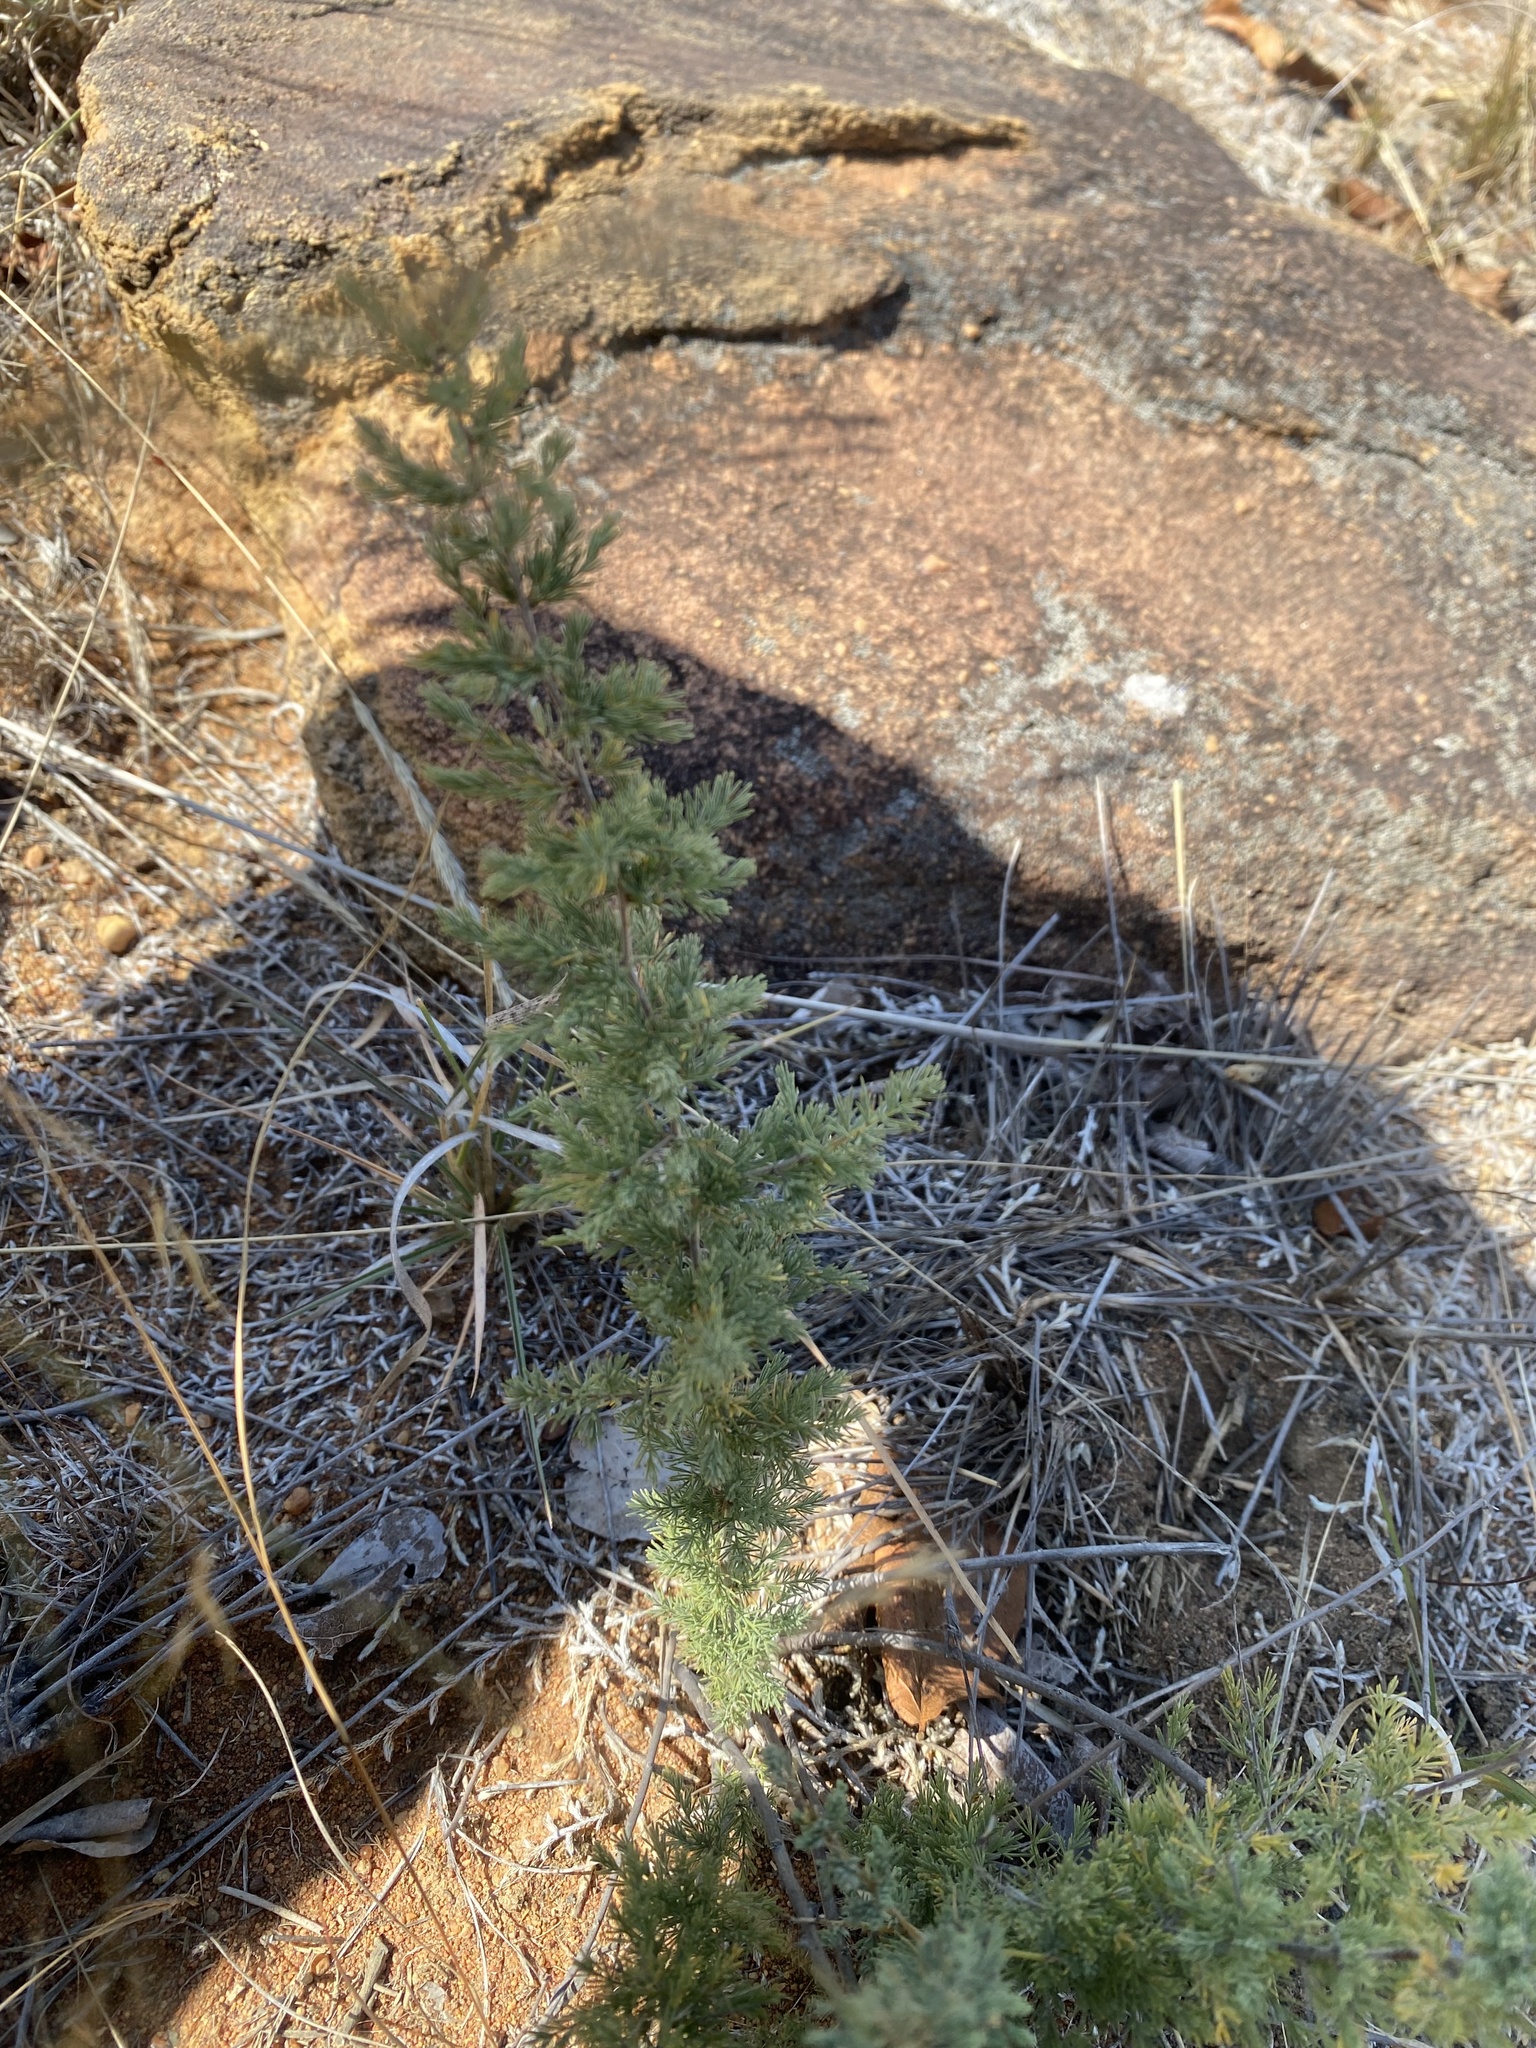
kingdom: Plantae
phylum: Tracheophyta
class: Liliopsida
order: Asparagales
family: Asparagaceae
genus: Asparagus
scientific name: Asparagus suaveolens
